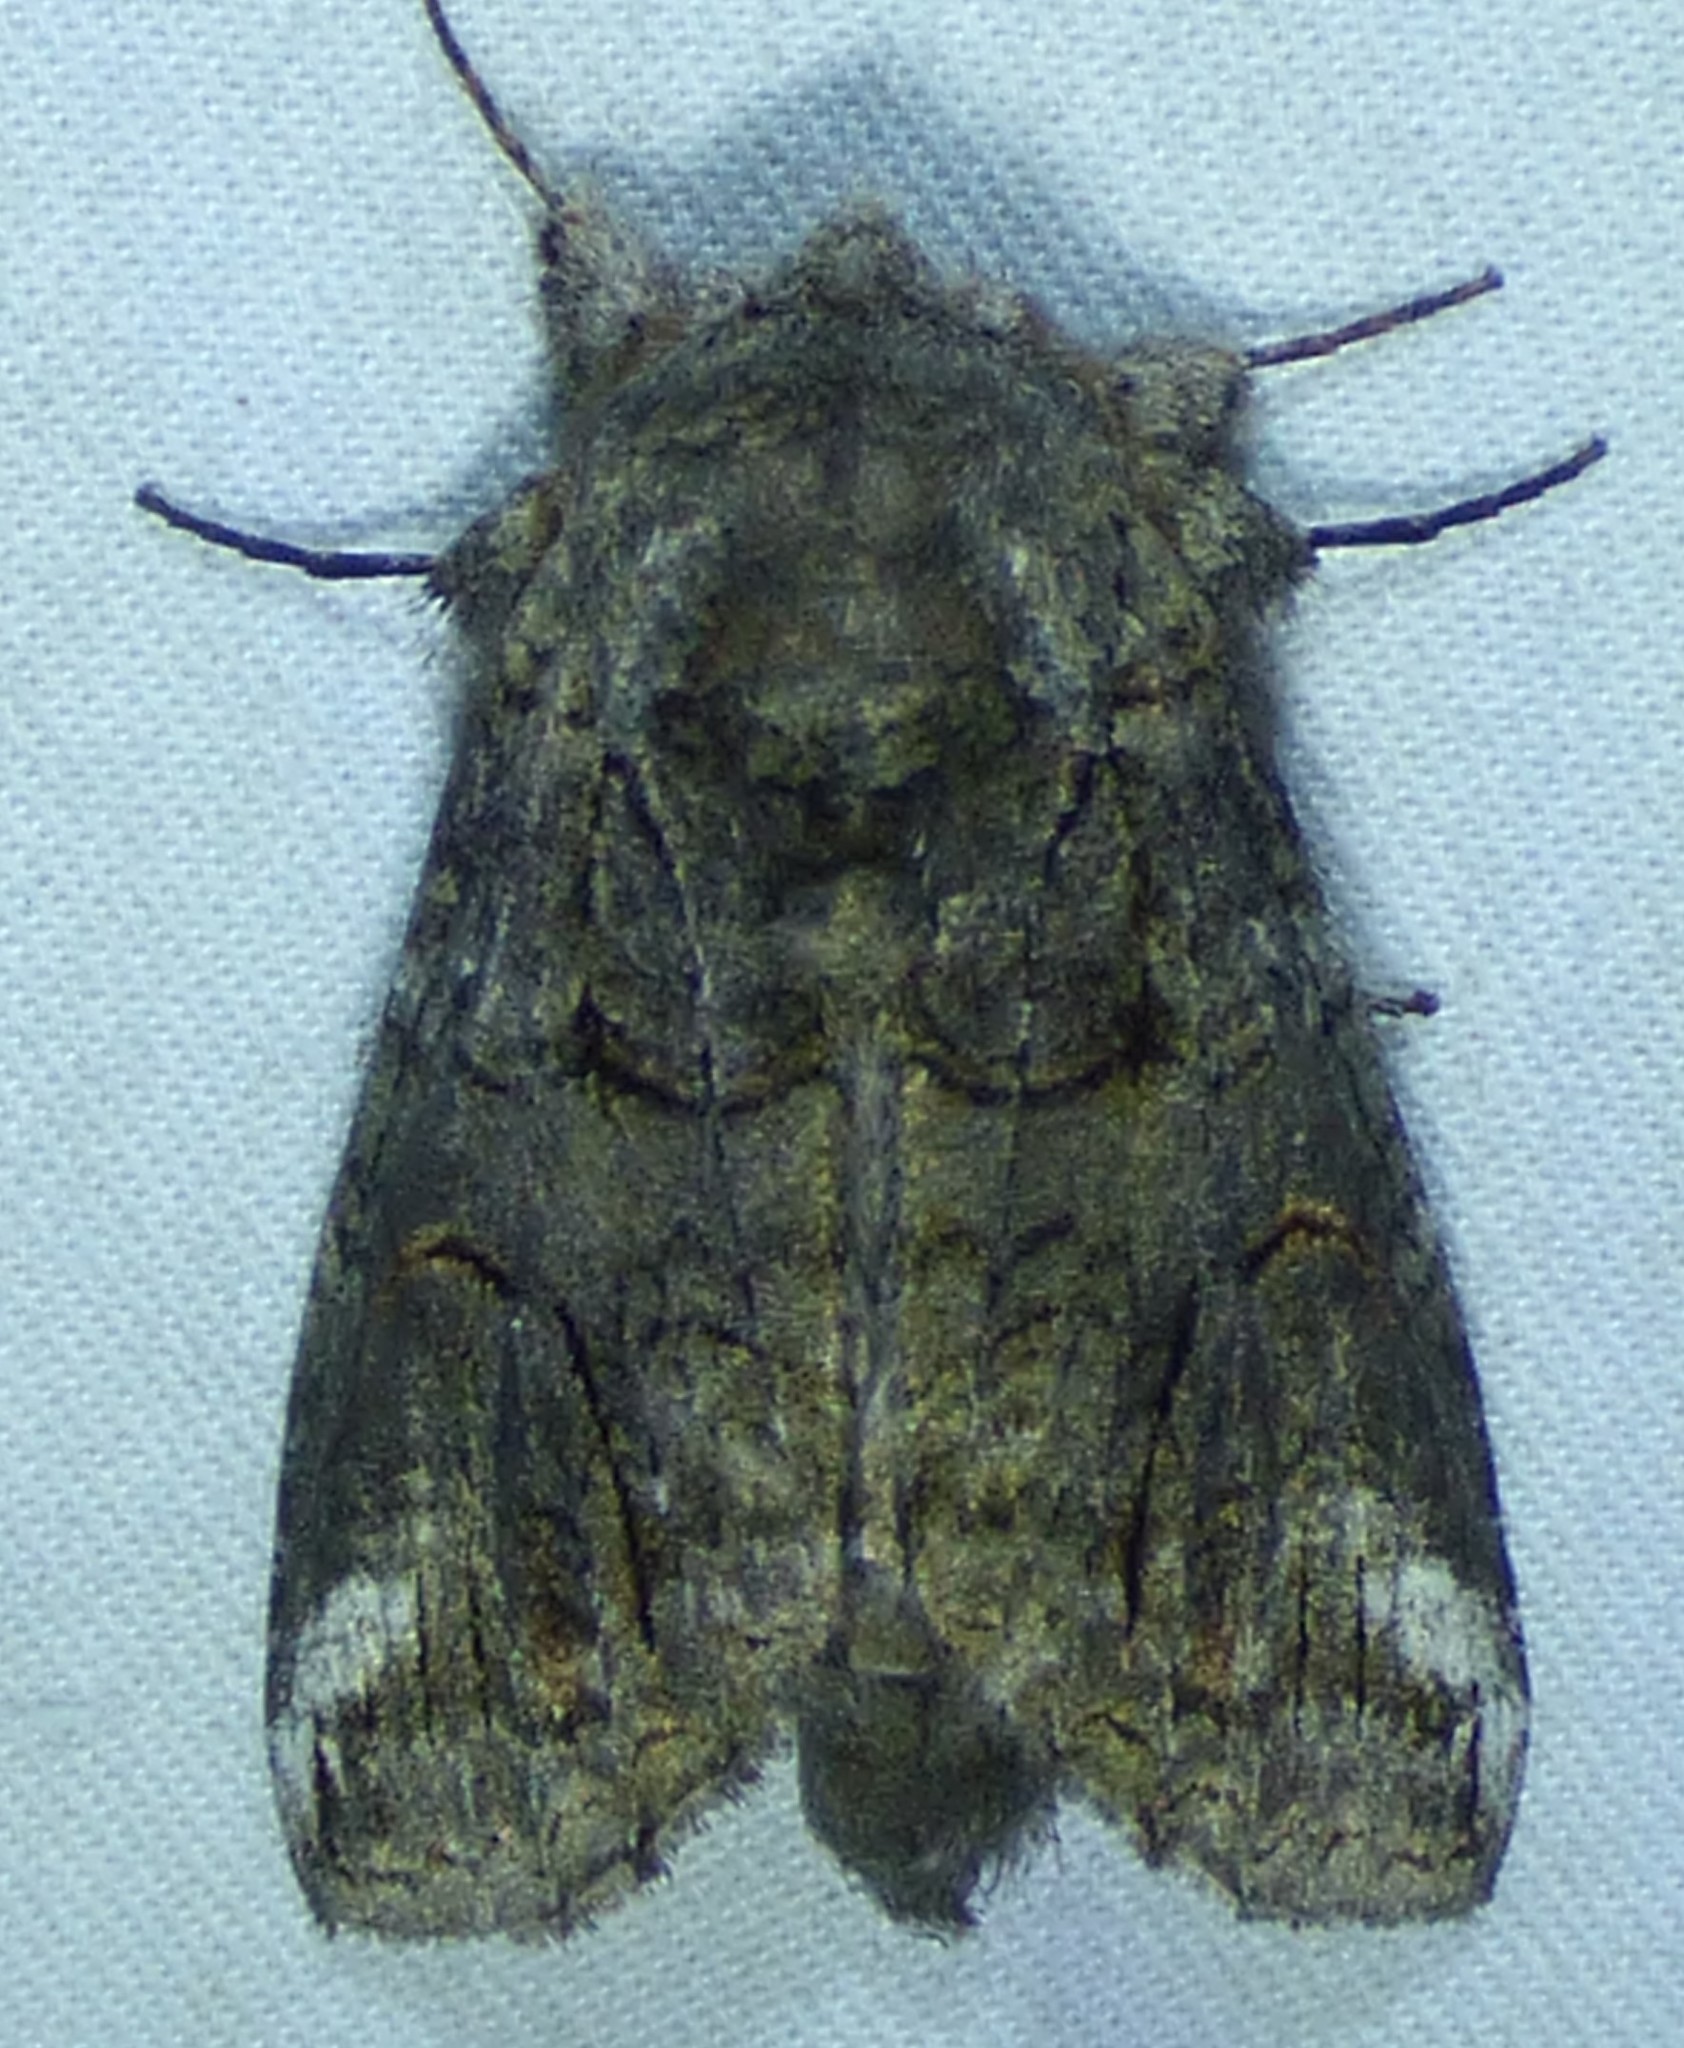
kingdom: Animalia
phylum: Arthropoda
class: Insecta
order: Lepidoptera
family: Notodontidae
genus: Heterocampa
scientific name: Heterocampa obliqua
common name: Oblique heterocampa
